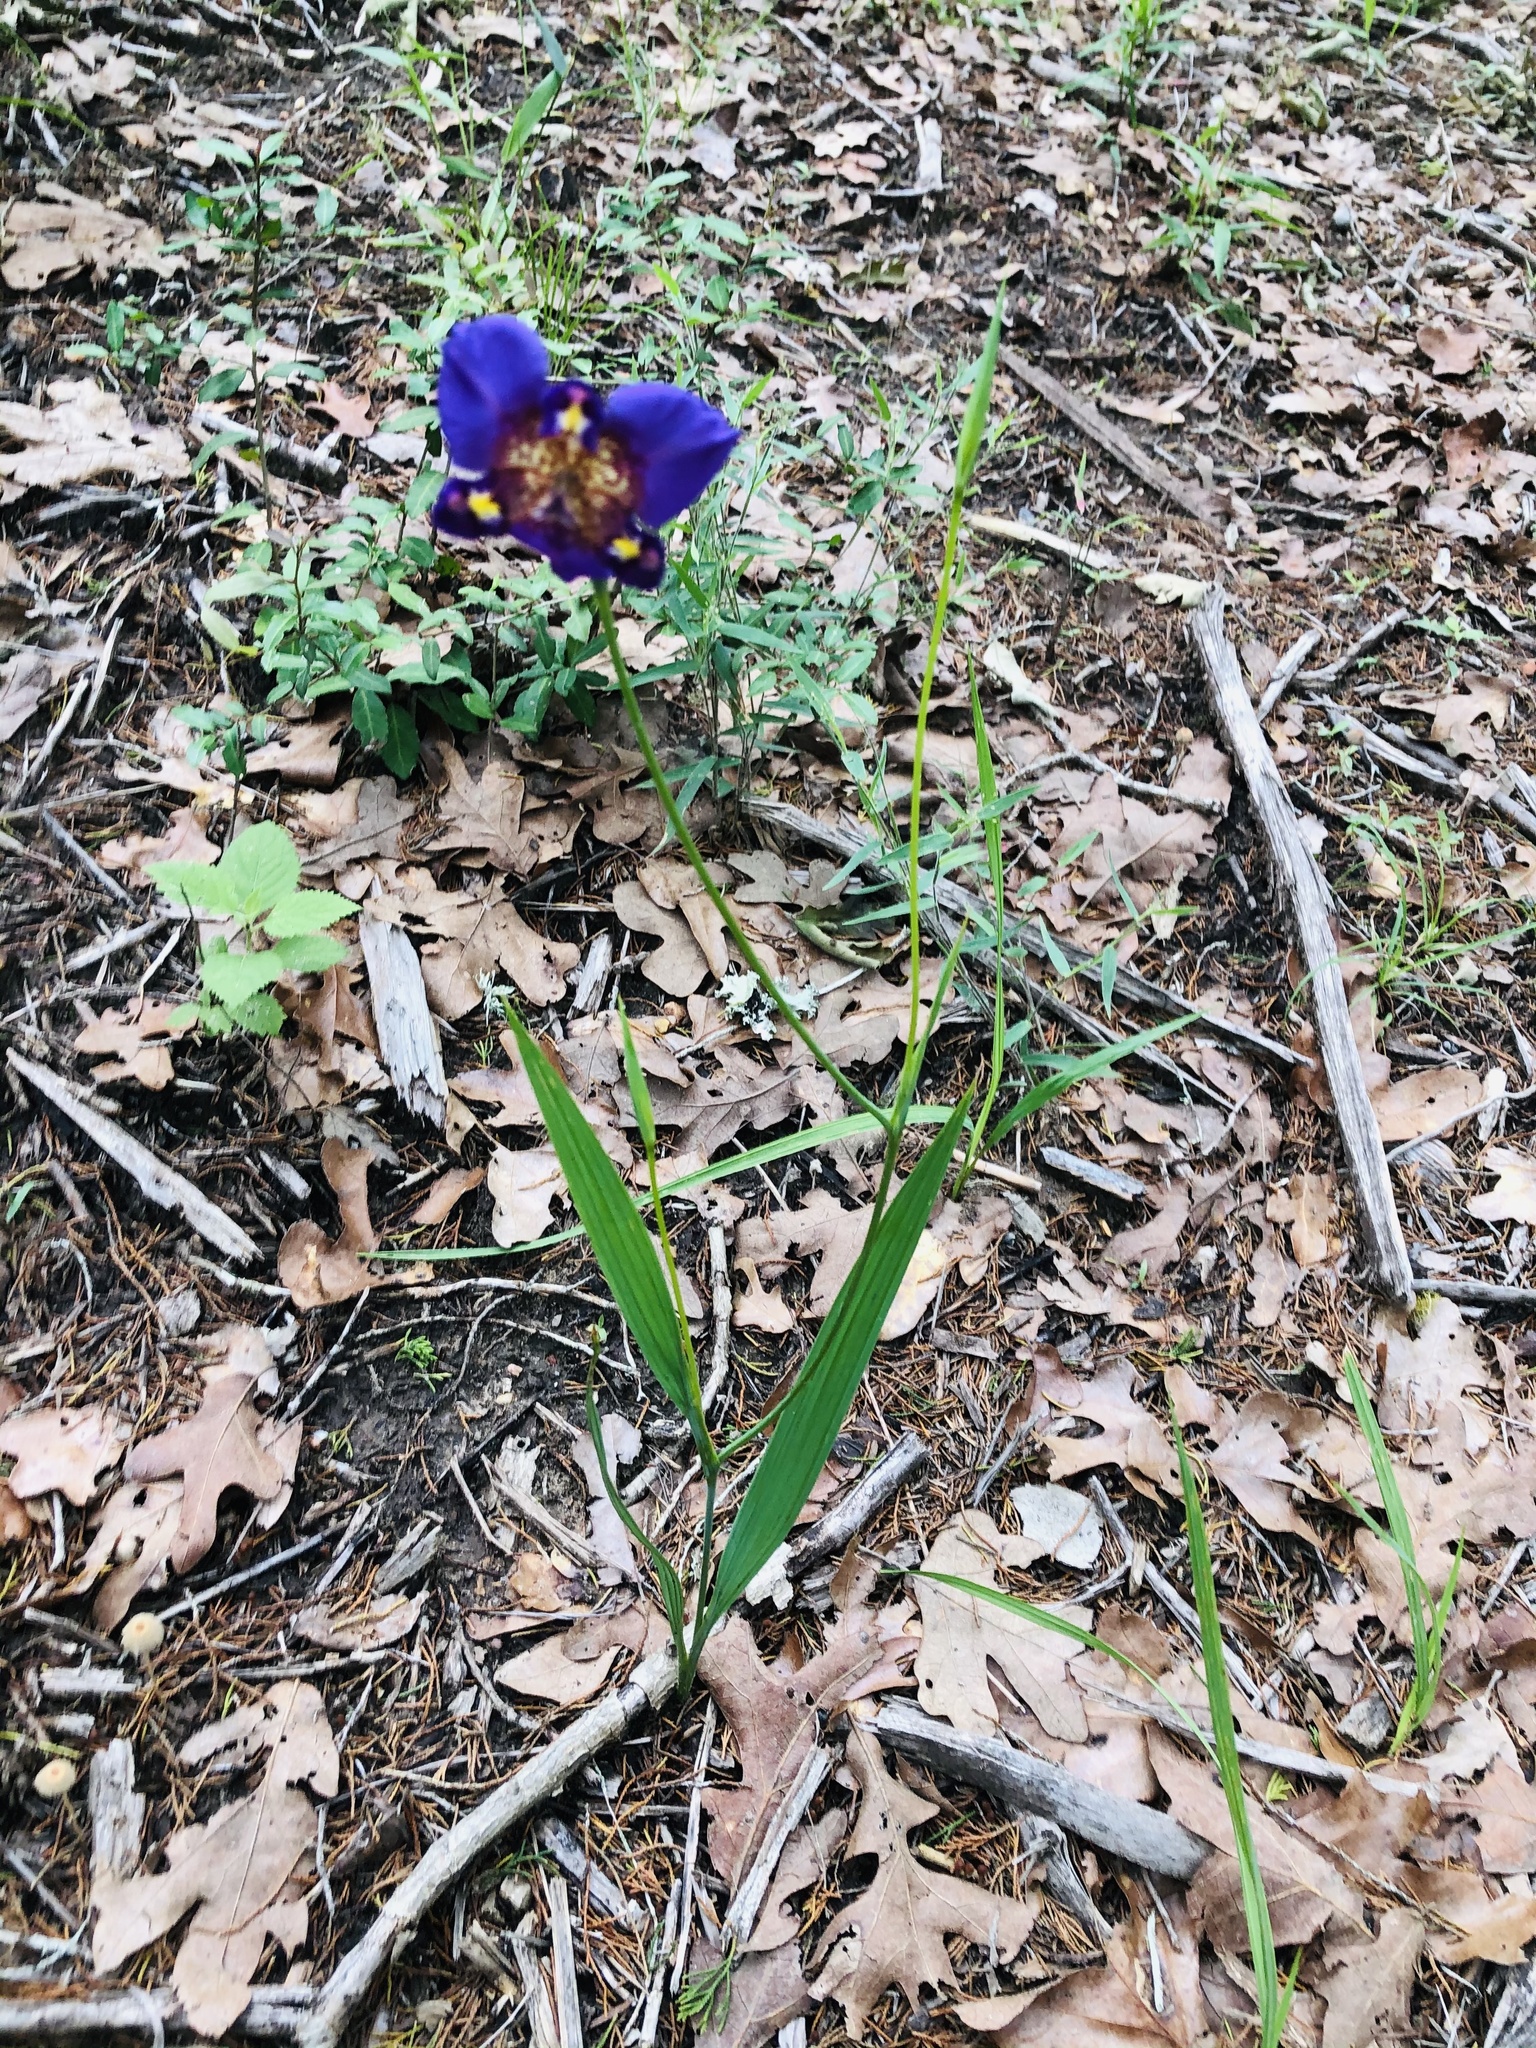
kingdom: Plantae
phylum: Tracheophyta
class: Liliopsida
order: Asparagales
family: Iridaceae
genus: Alophia
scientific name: Alophia drummondii
